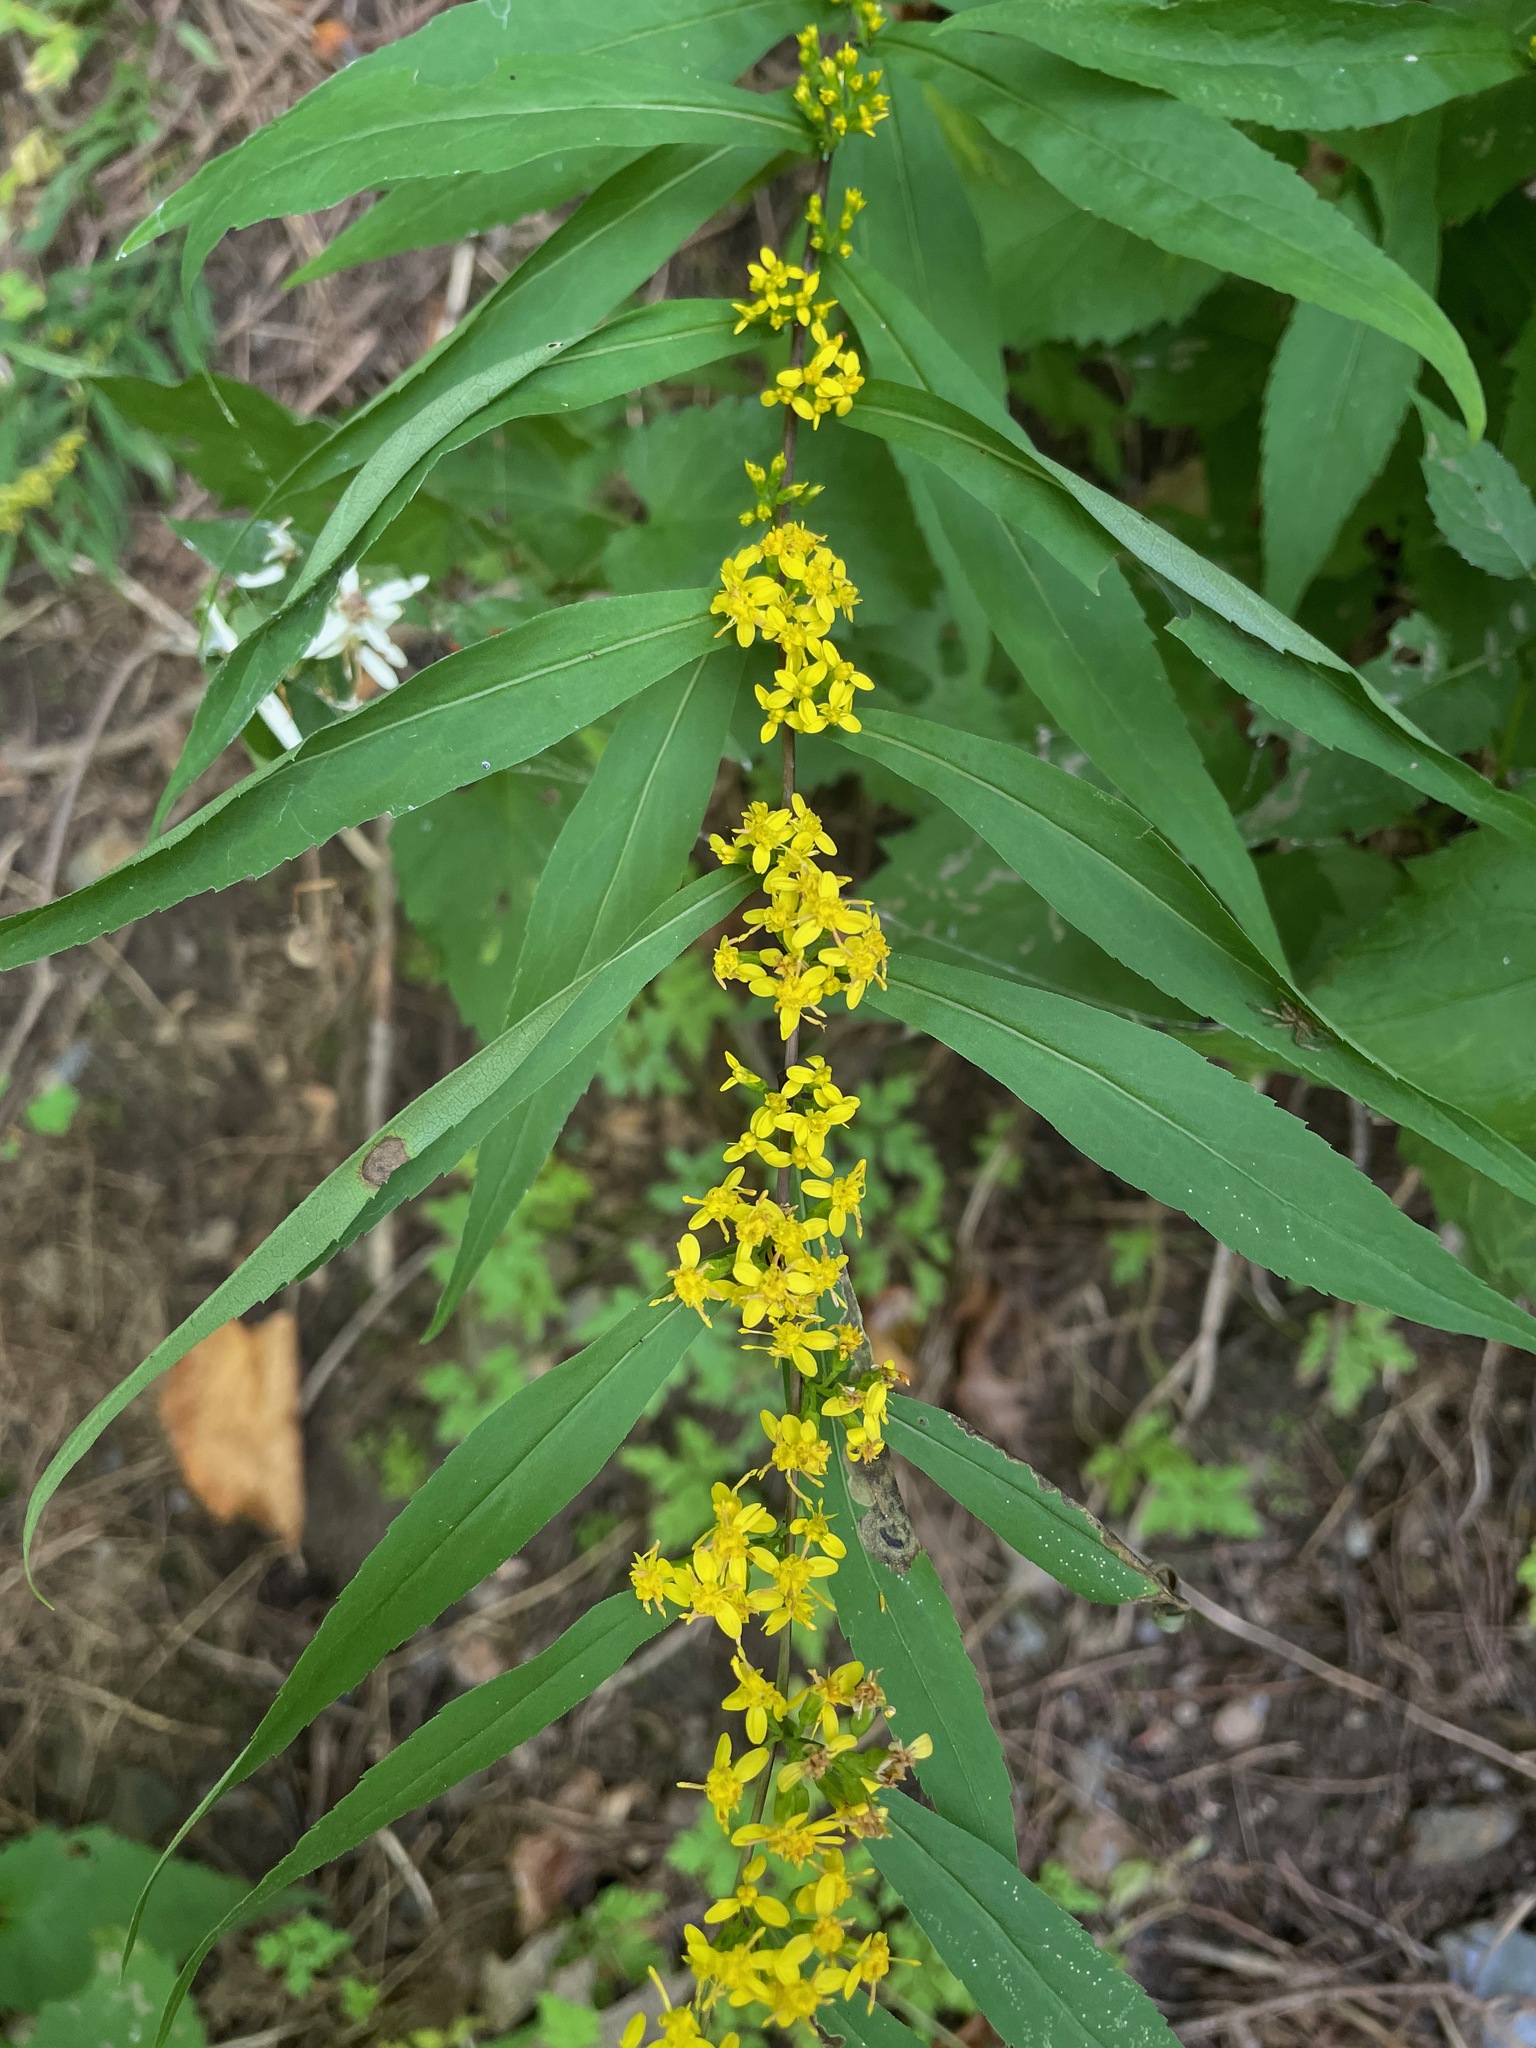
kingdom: Plantae
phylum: Tracheophyta
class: Magnoliopsida
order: Asterales
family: Asteraceae
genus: Solidago
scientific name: Solidago caesia
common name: Woodland goldenrod
